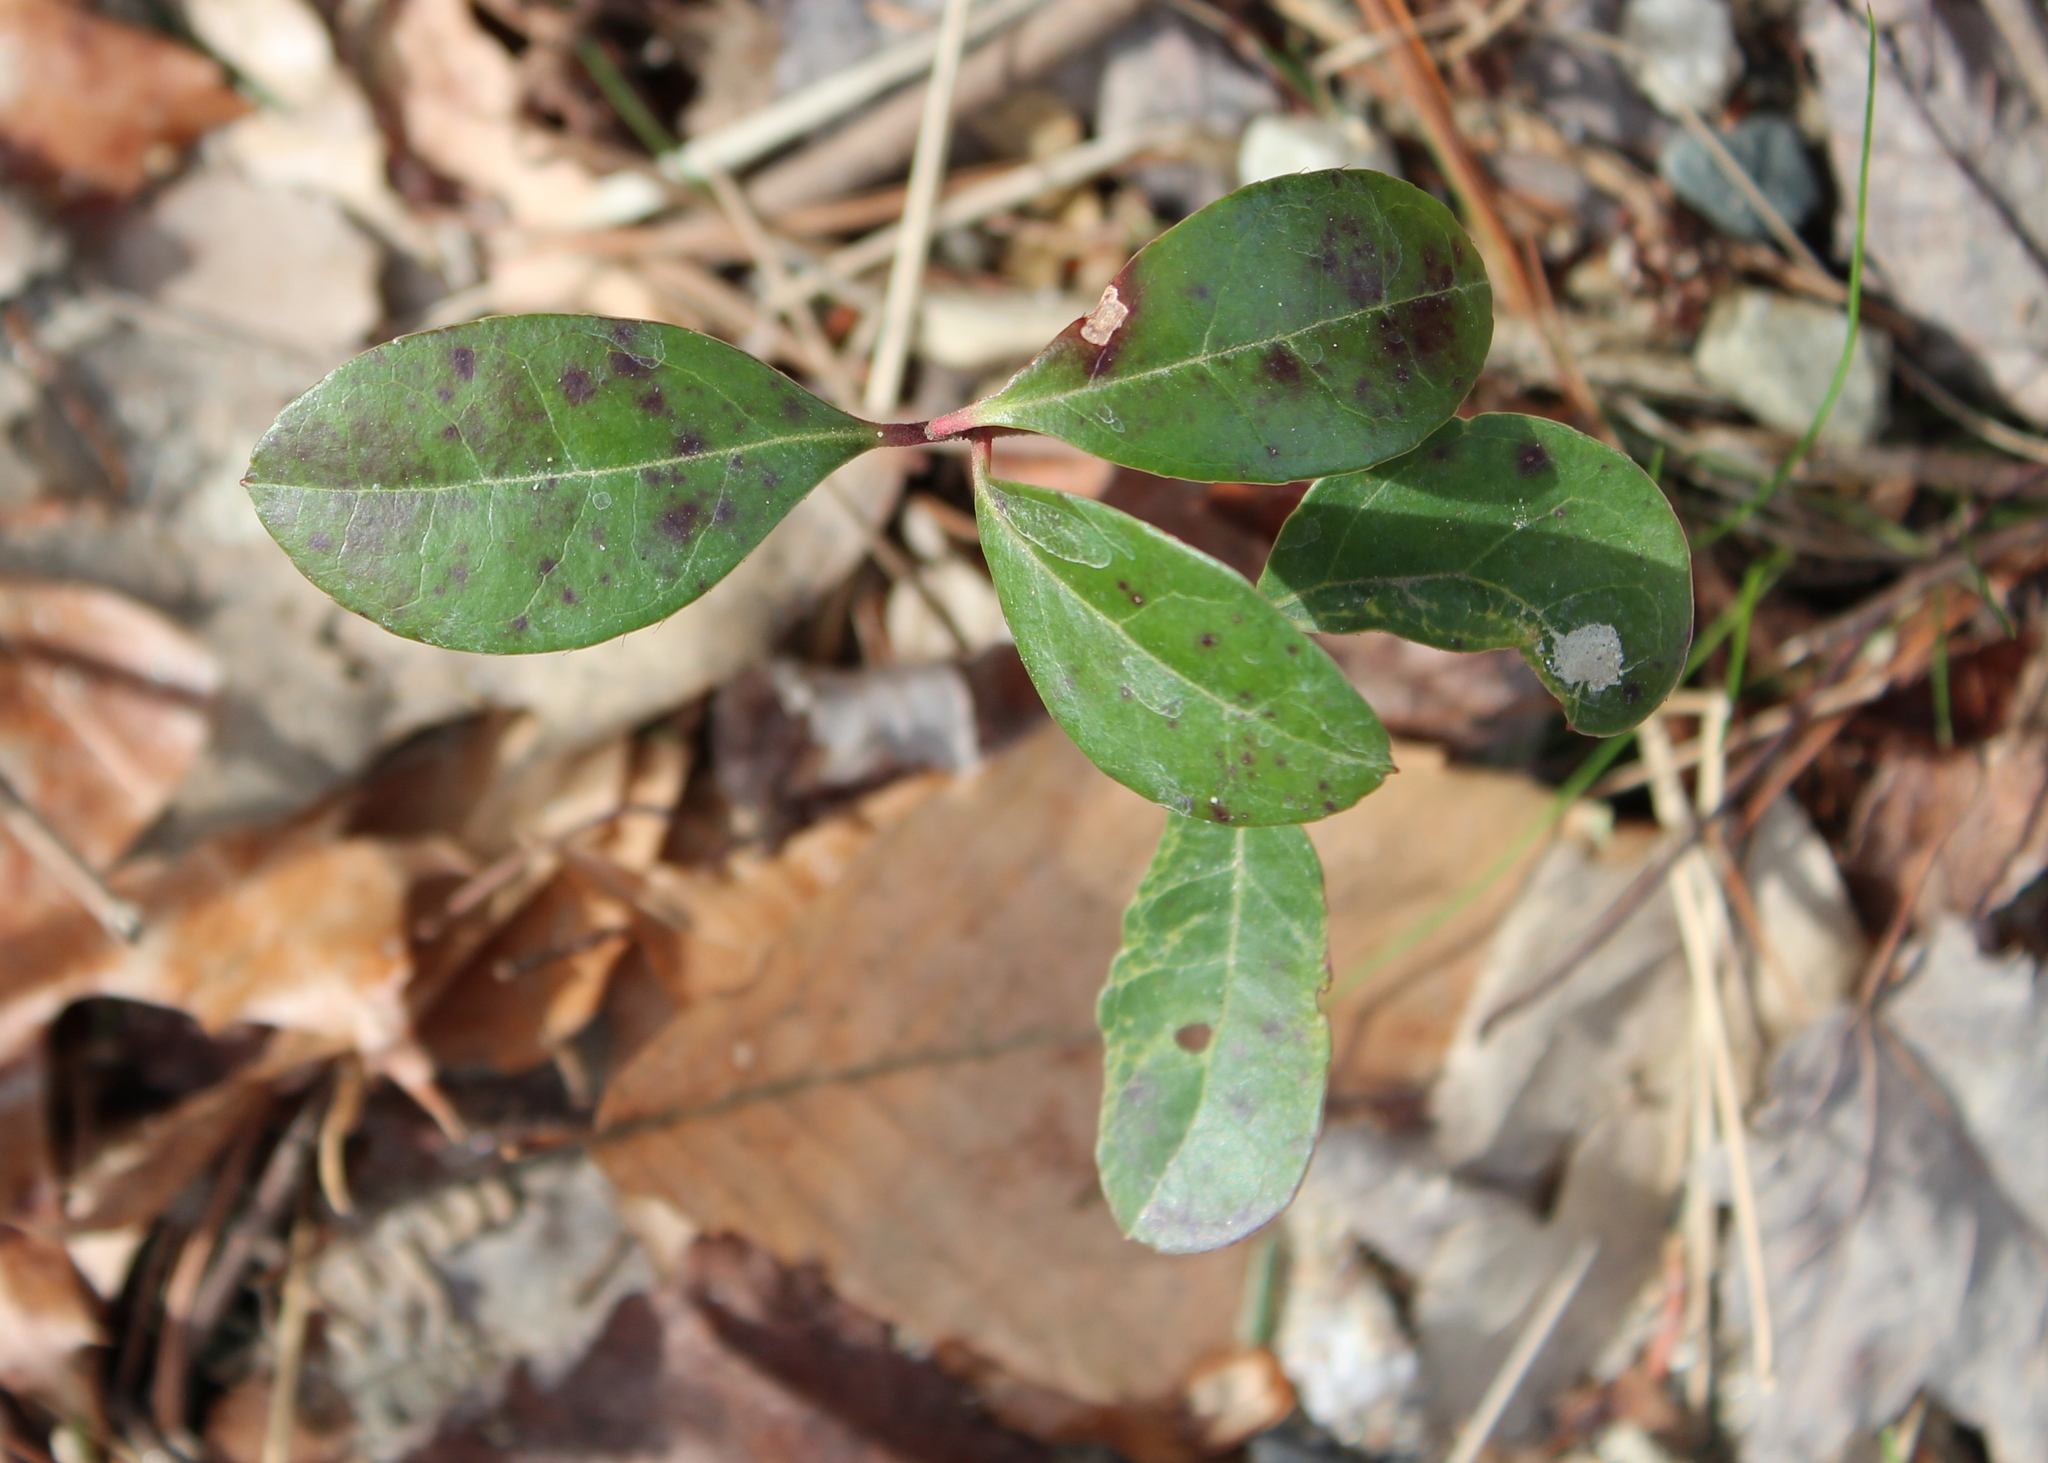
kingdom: Plantae
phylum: Tracheophyta
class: Magnoliopsida
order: Ericales
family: Ericaceae
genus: Gaultheria
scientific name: Gaultheria procumbens
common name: Checkerberry
